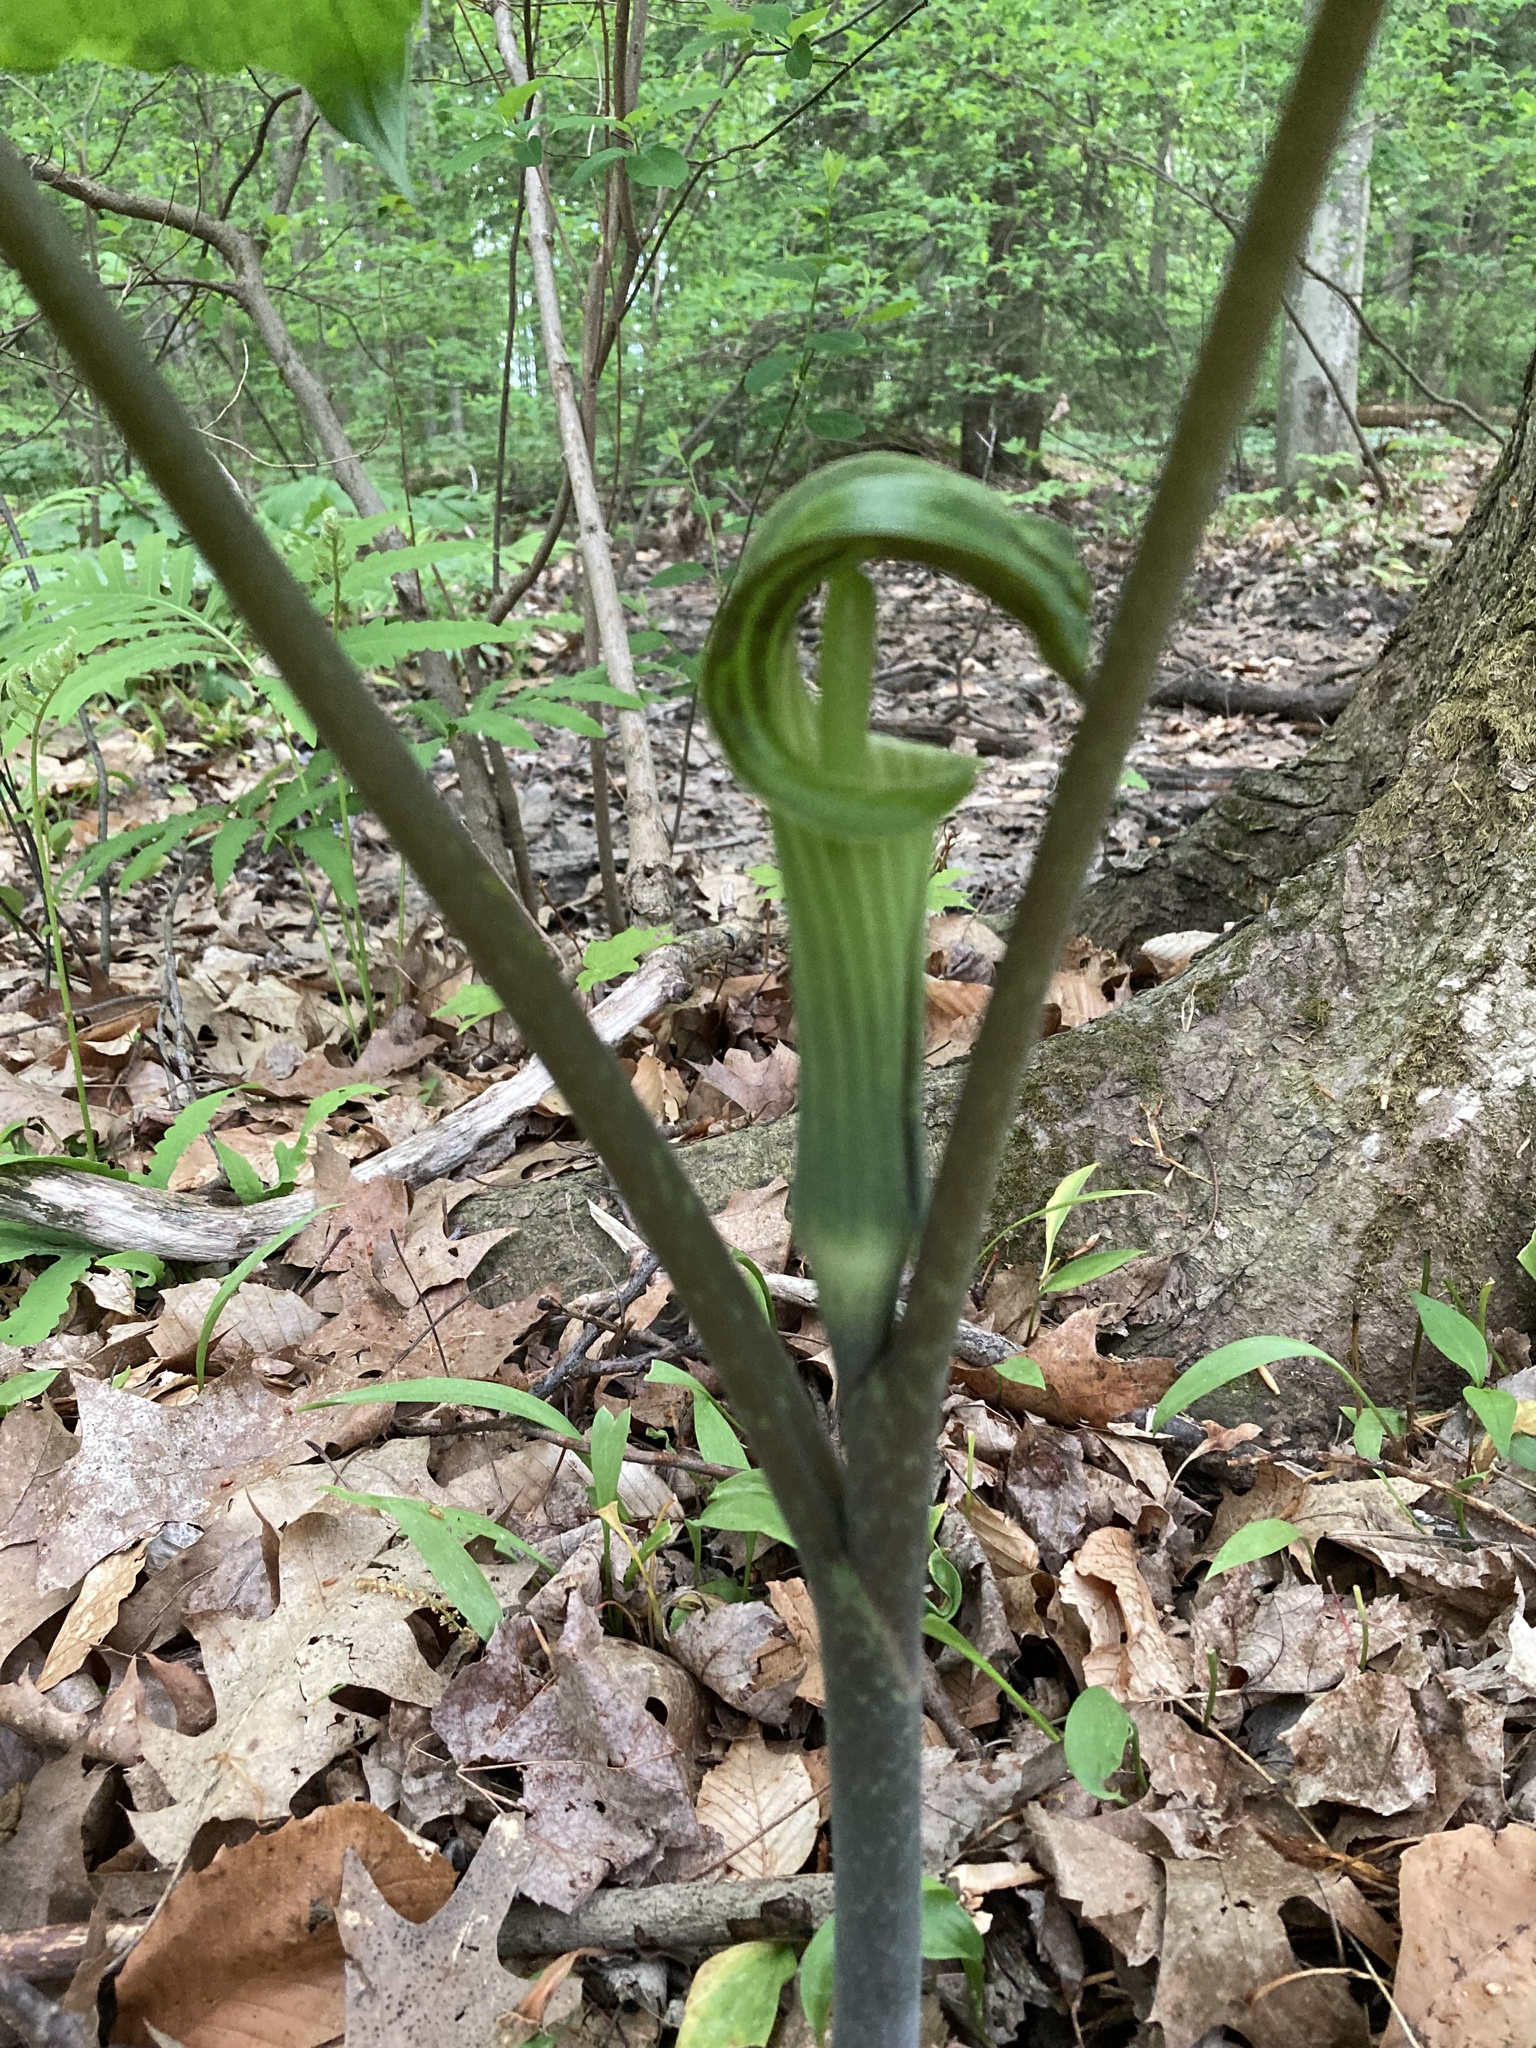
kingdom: Plantae
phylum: Tracheophyta
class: Liliopsida
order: Alismatales
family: Araceae
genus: Arisaema
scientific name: Arisaema triphyllum
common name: Jack-in-the-pulpit
